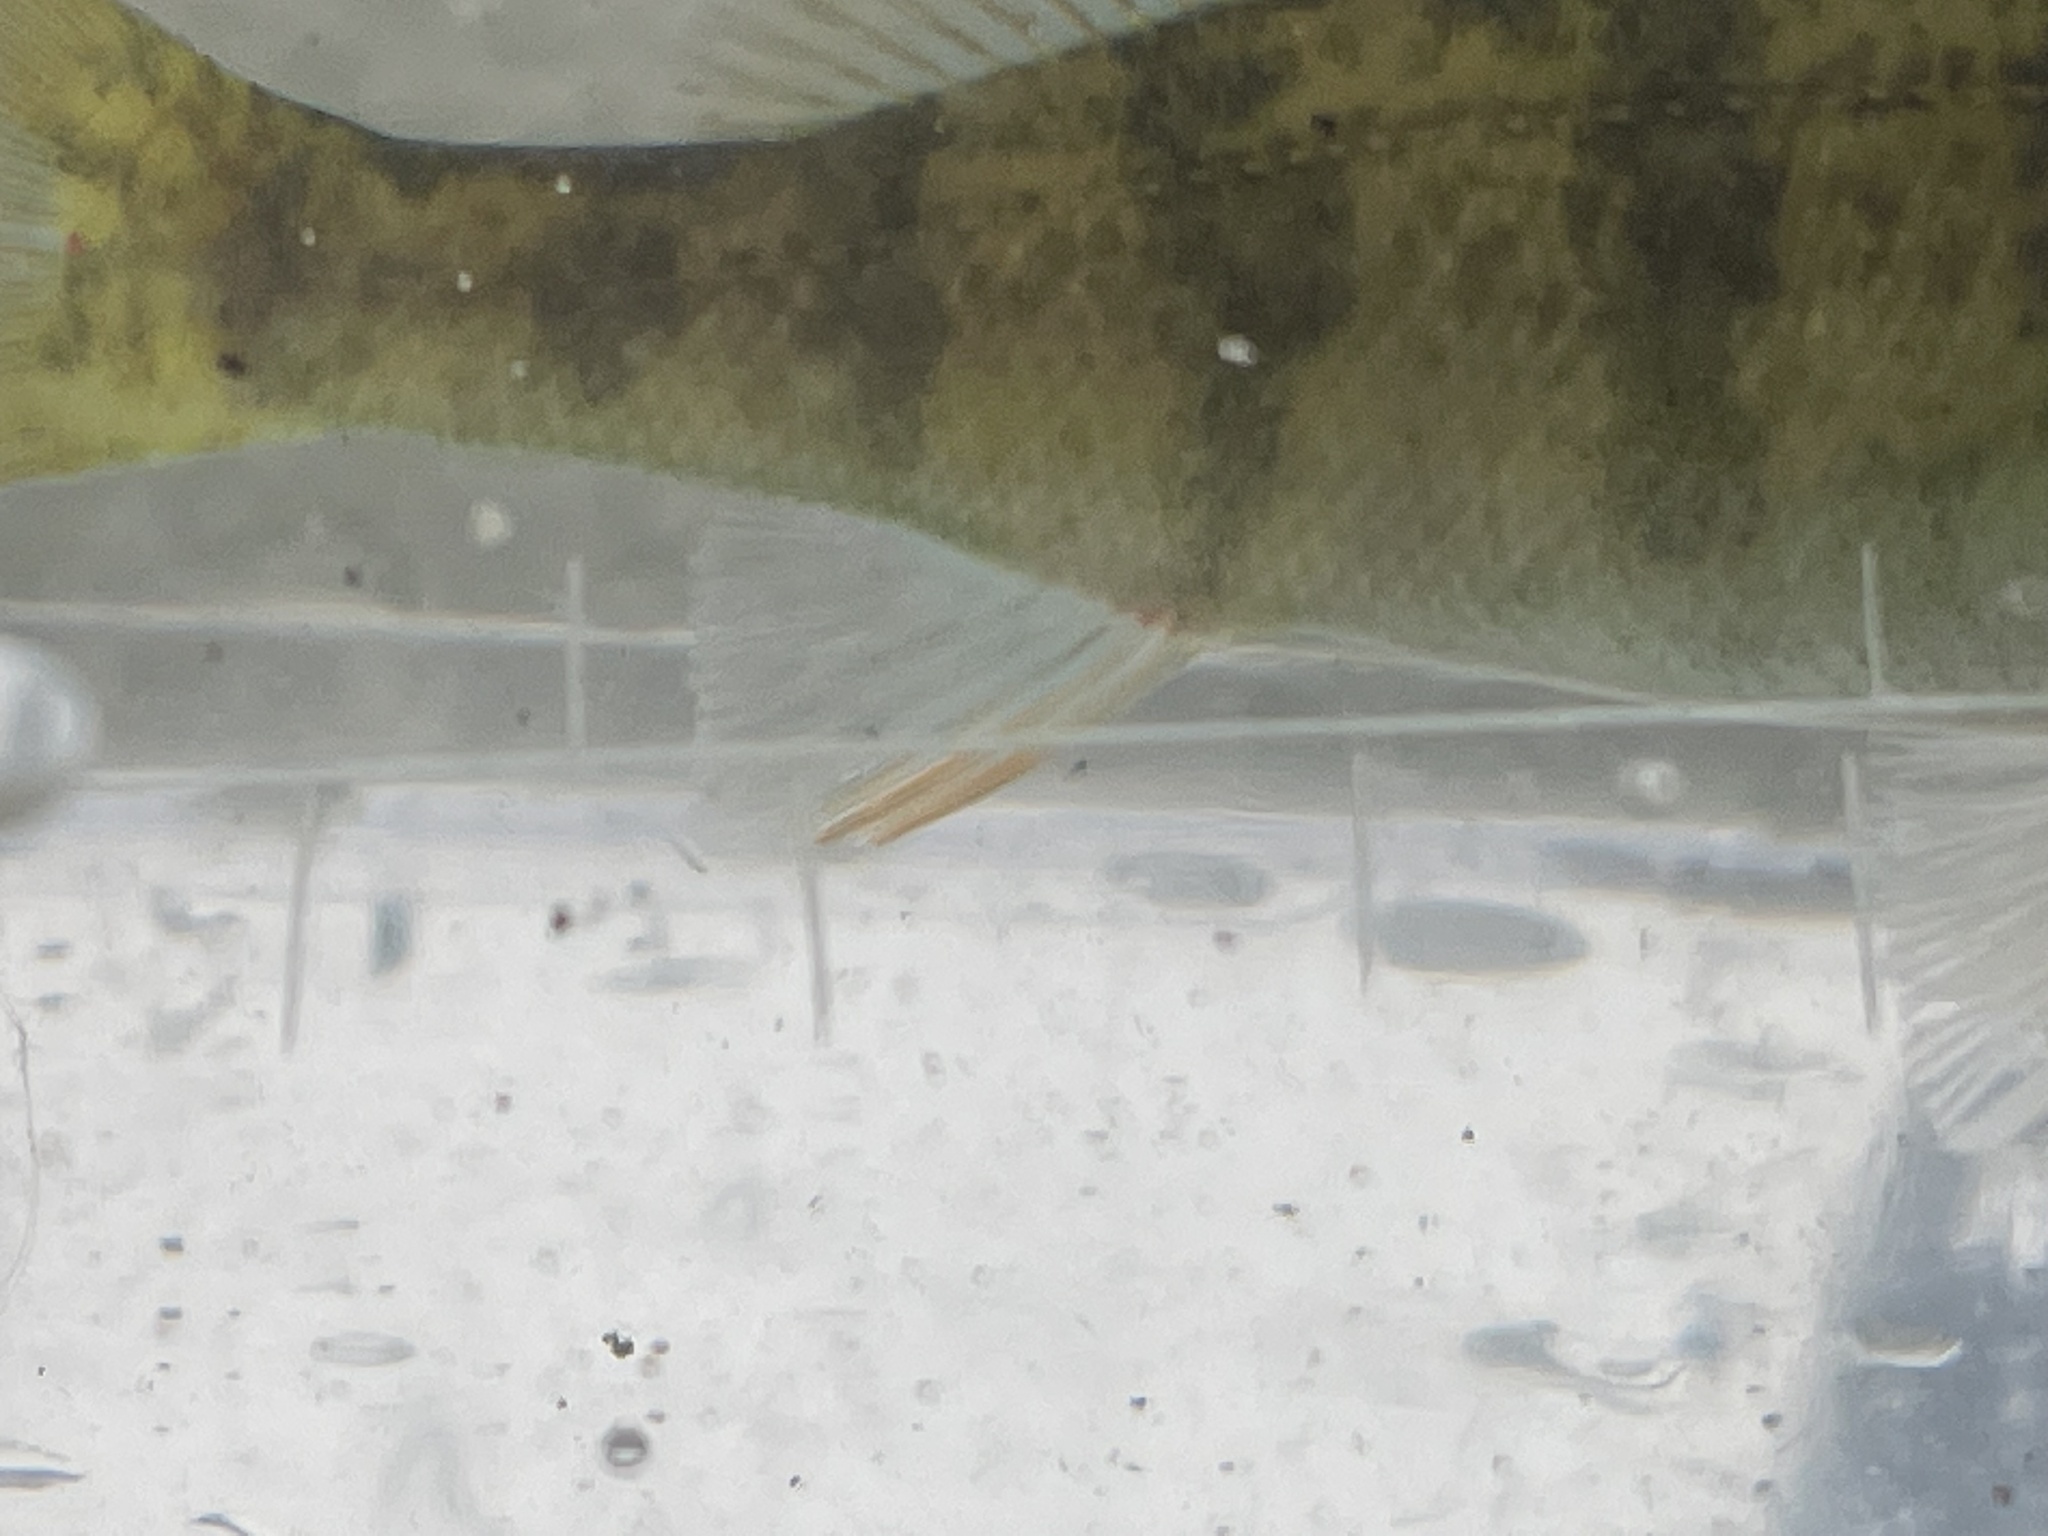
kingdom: Animalia
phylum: Chordata
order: Perciformes
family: Percidae
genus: Perca
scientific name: Perca flavescens
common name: Yellow perch
